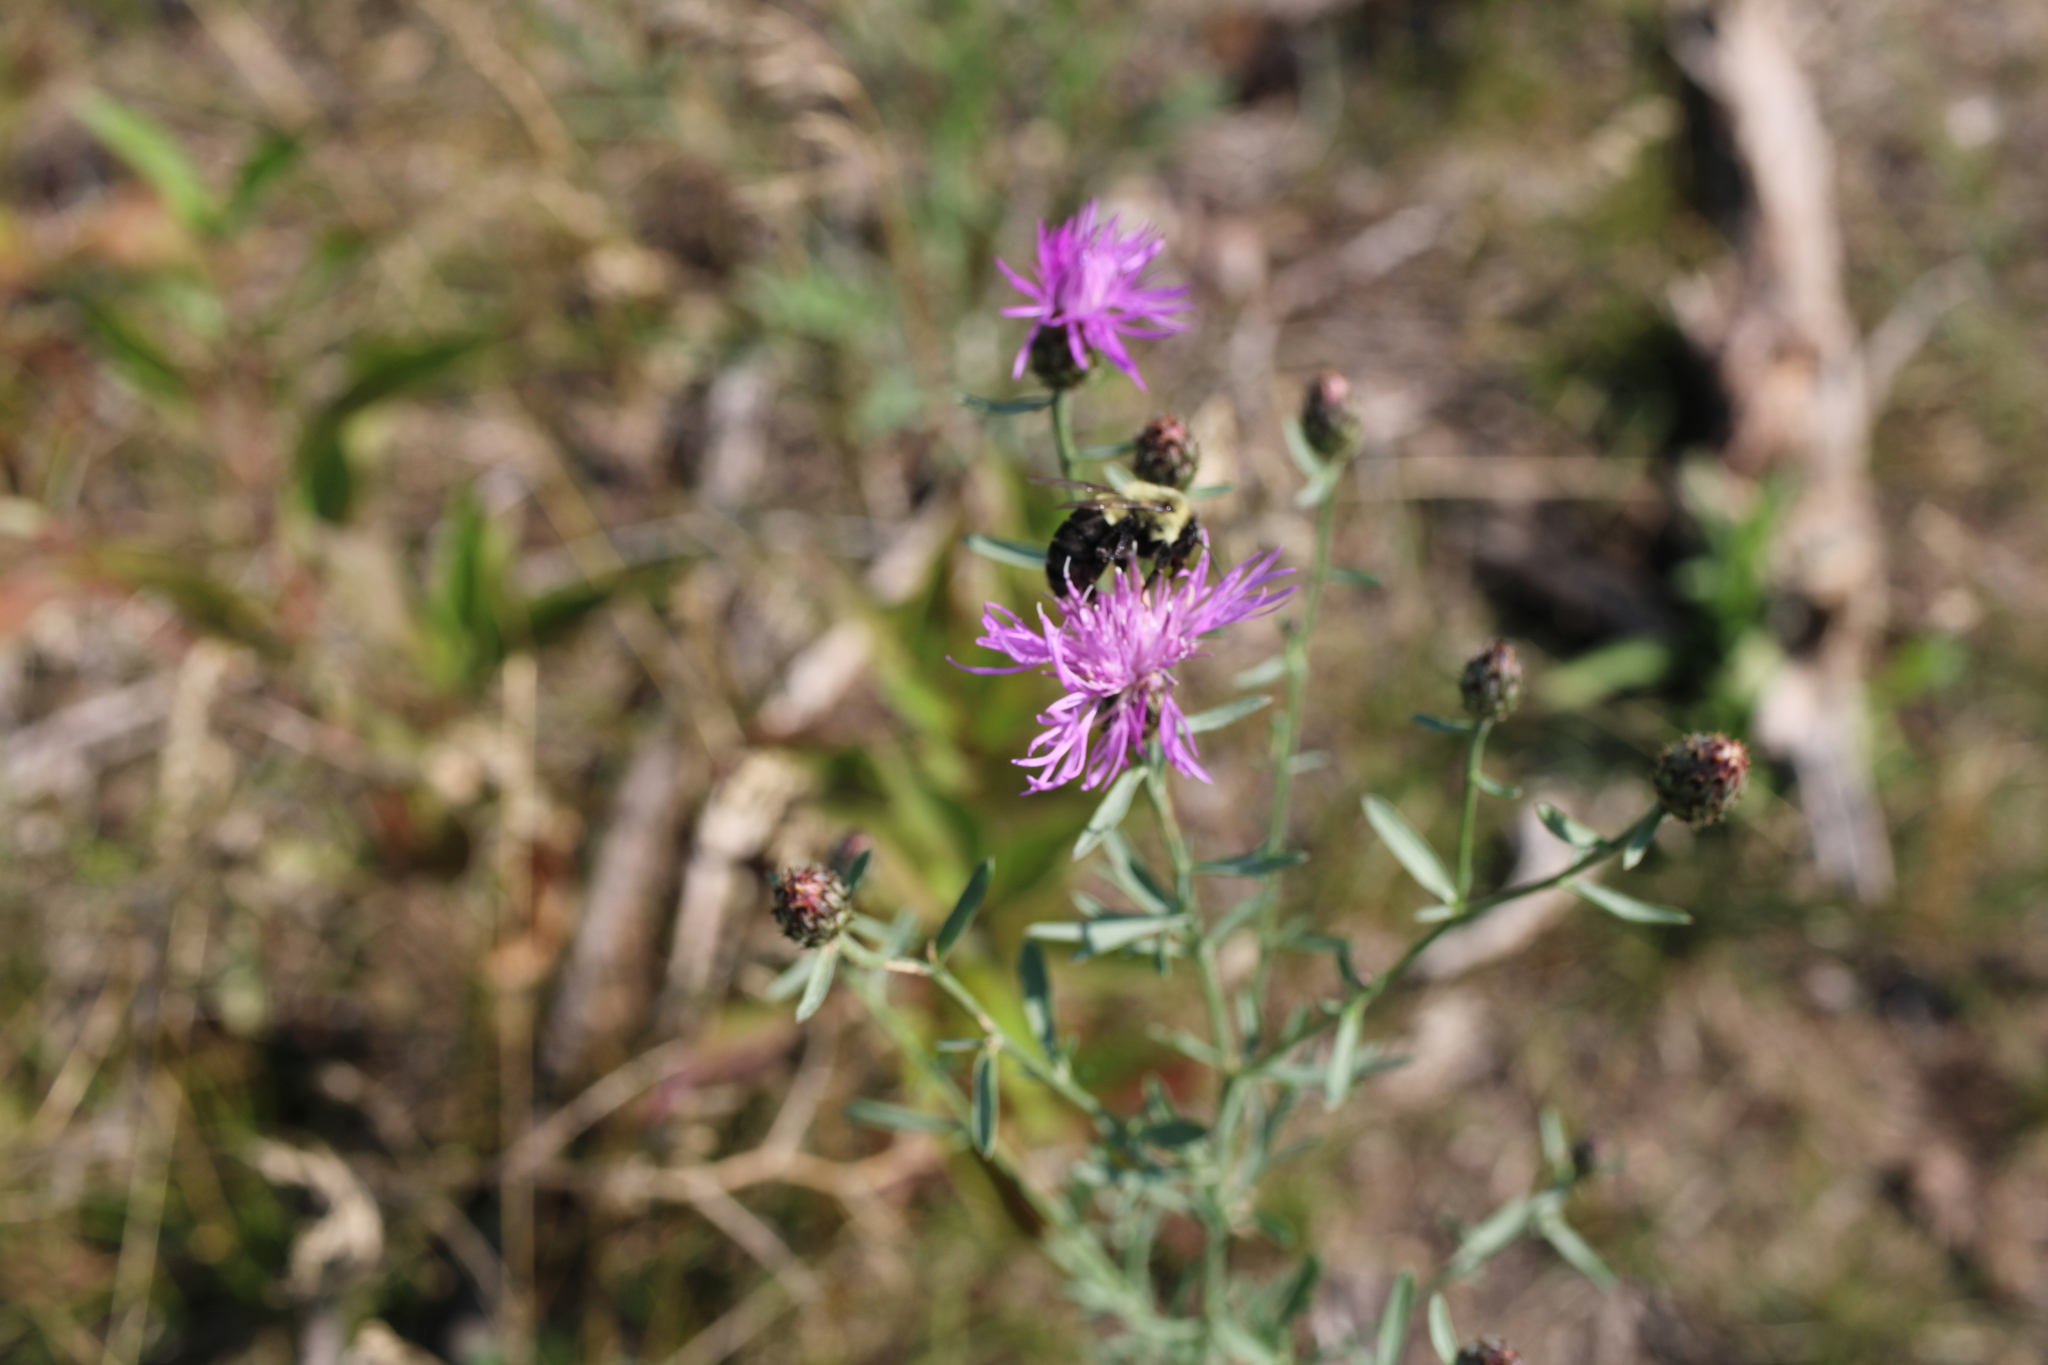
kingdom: Animalia
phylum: Arthropoda
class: Insecta
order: Hymenoptera
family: Apidae
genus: Bombus
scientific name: Bombus impatiens
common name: Common eastern bumble bee
